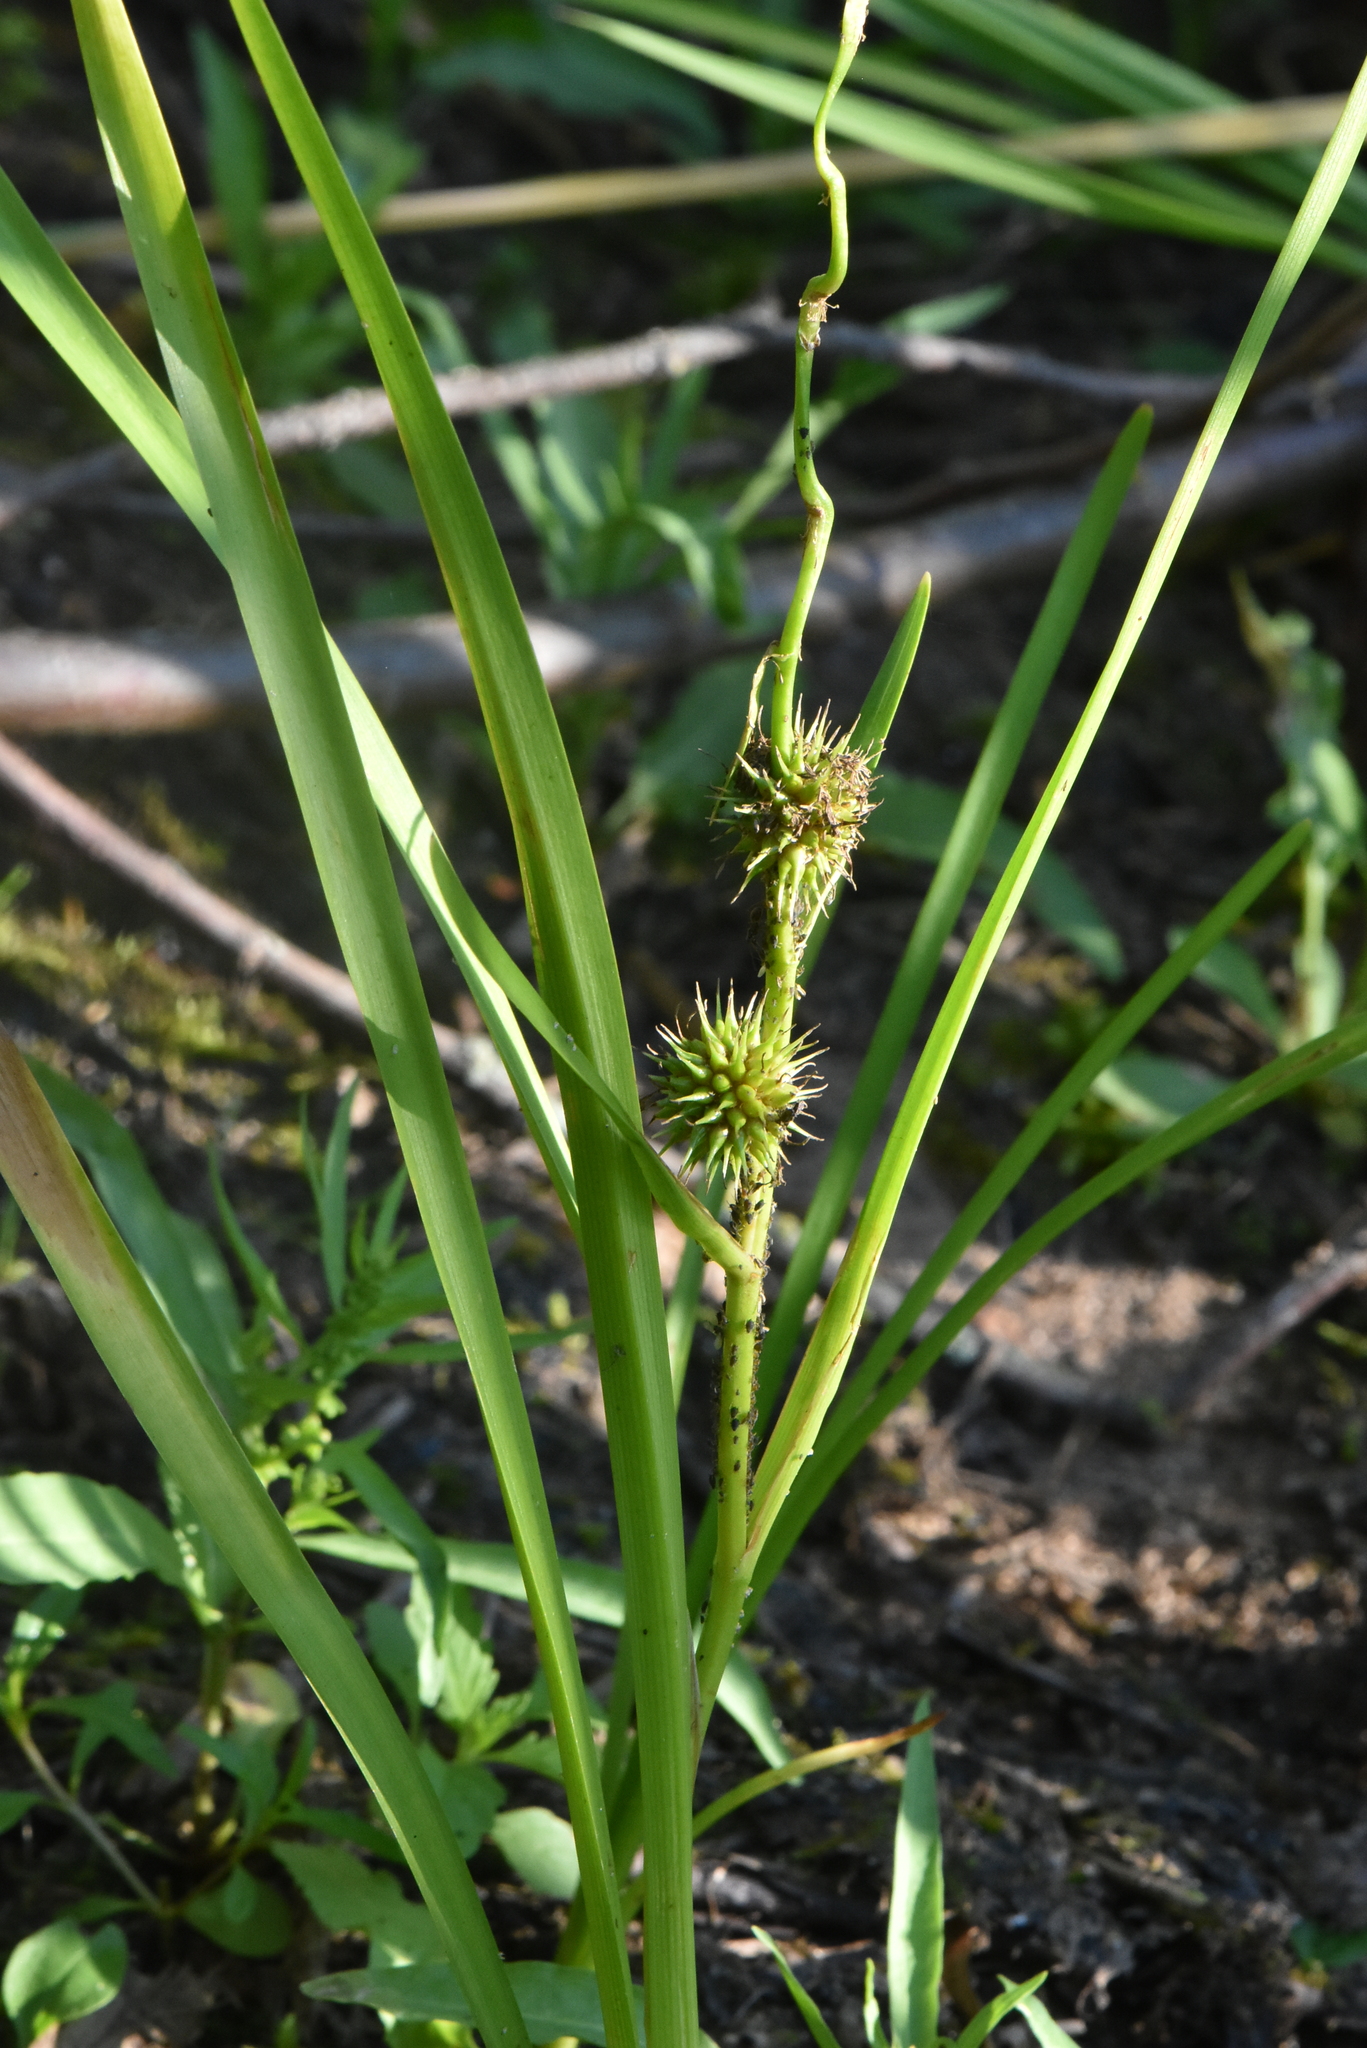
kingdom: Plantae
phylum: Tracheophyta
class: Liliopsida
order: Poales
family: Typhaceae
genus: Sparganium
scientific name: Sparganium emersum
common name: Unbranched bur-reed
